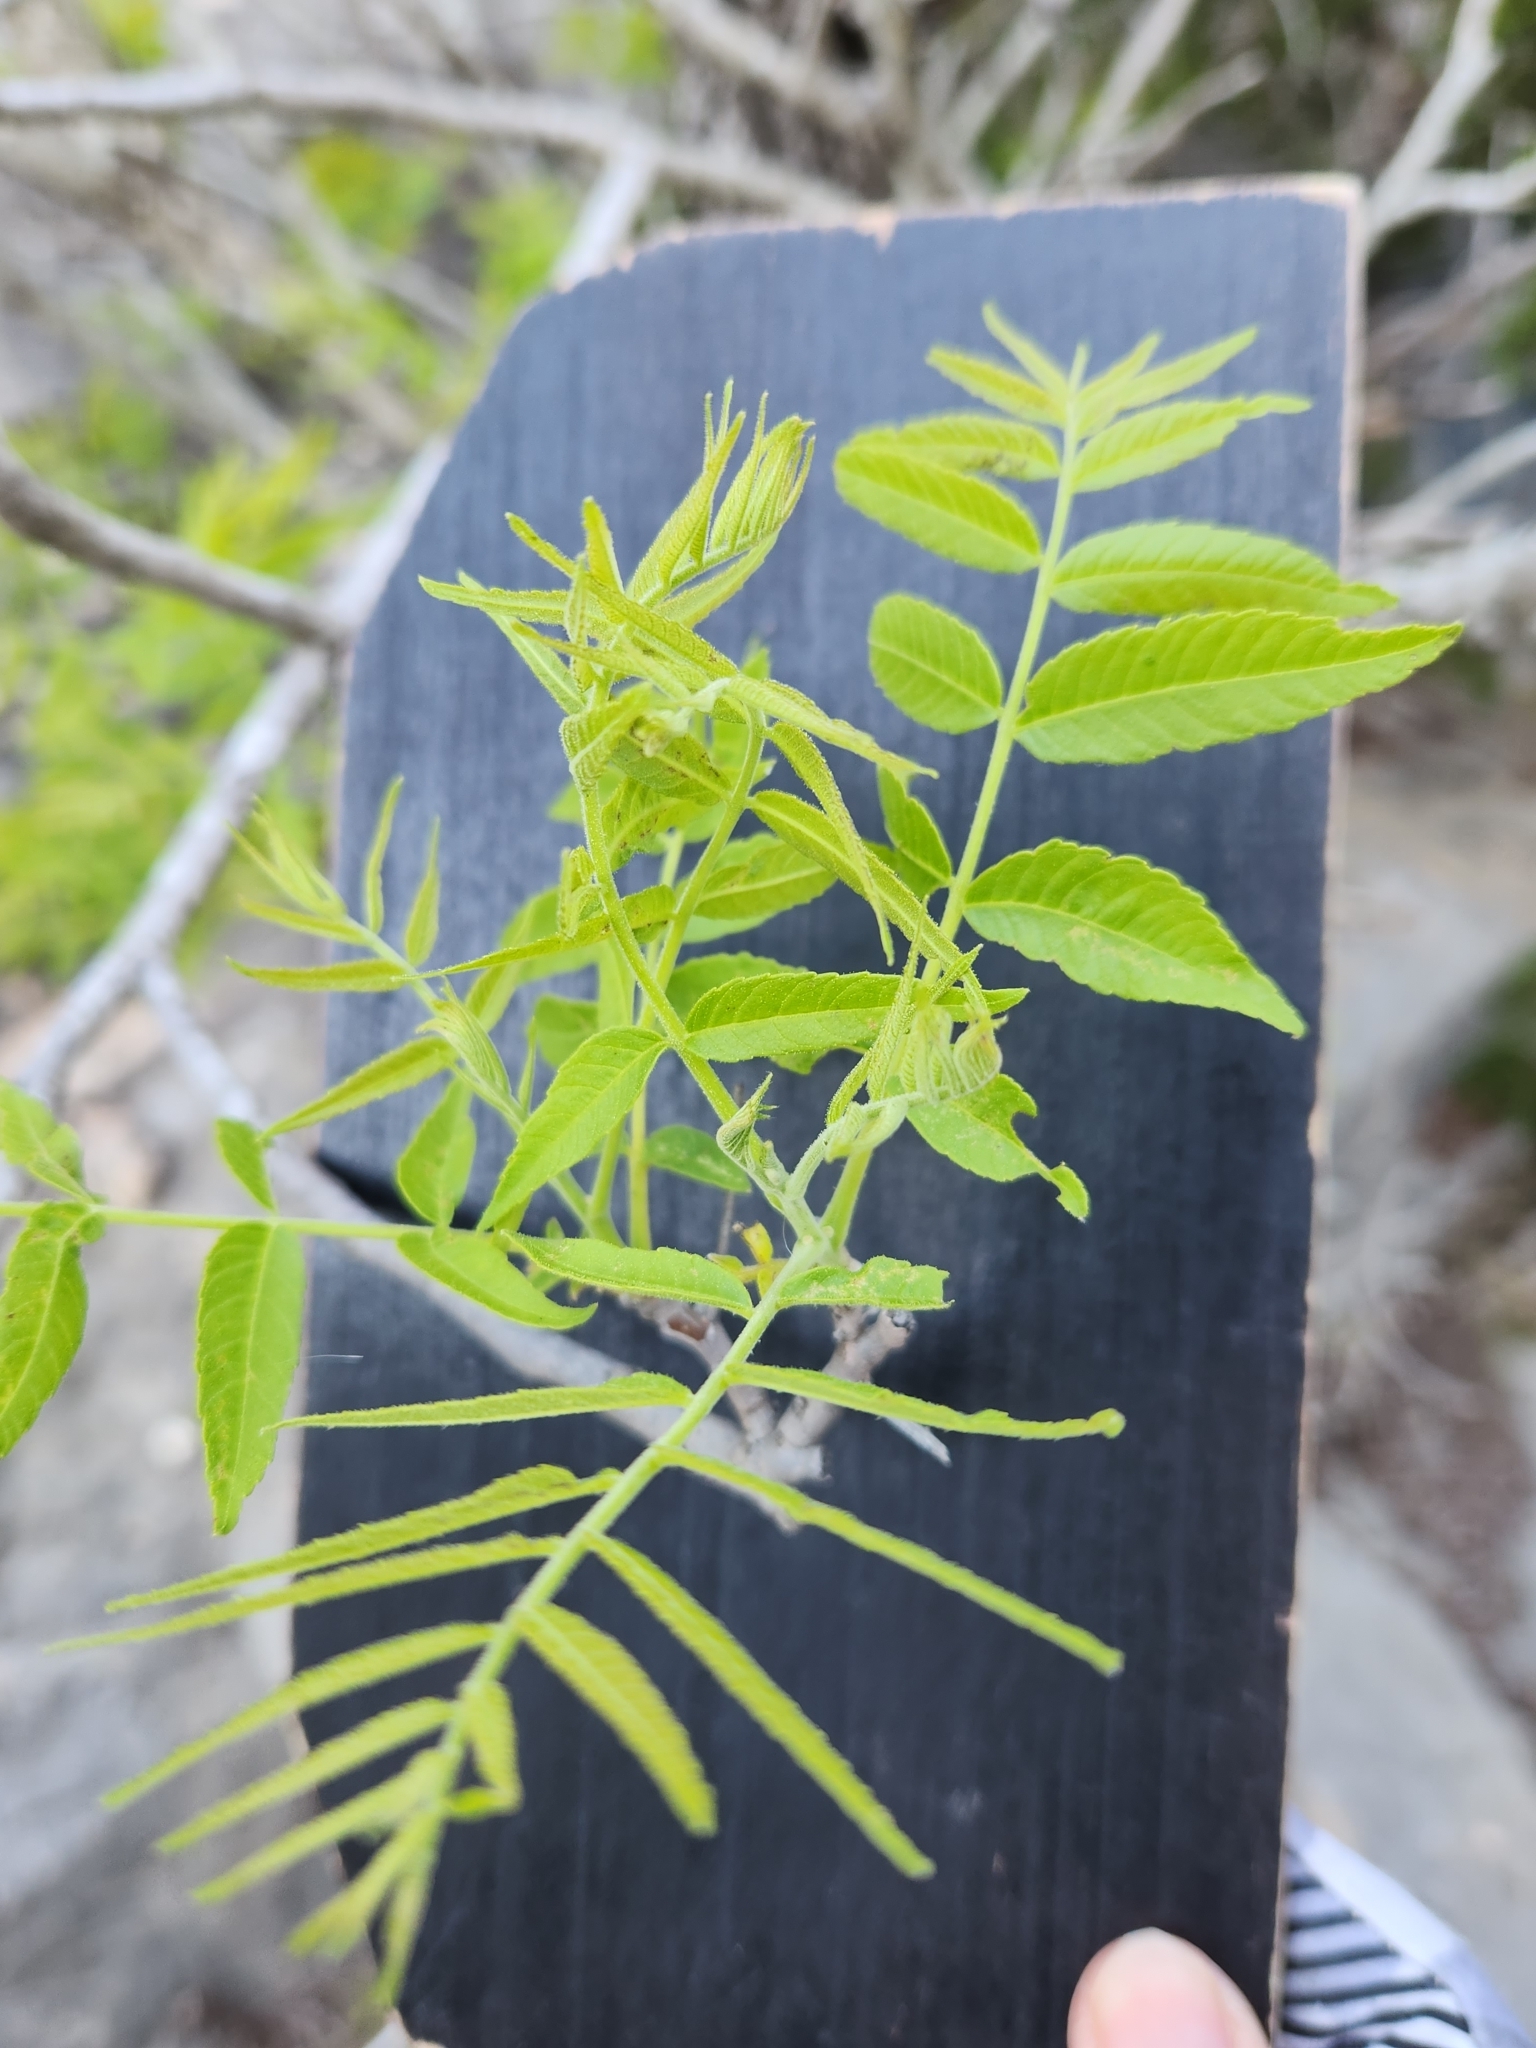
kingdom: Plantae
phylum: Tracheophyta
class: Magnoliopsida
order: Fagales
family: Juglandaceae
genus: Juglans
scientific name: Juglans microcarpa
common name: Texas walnut
